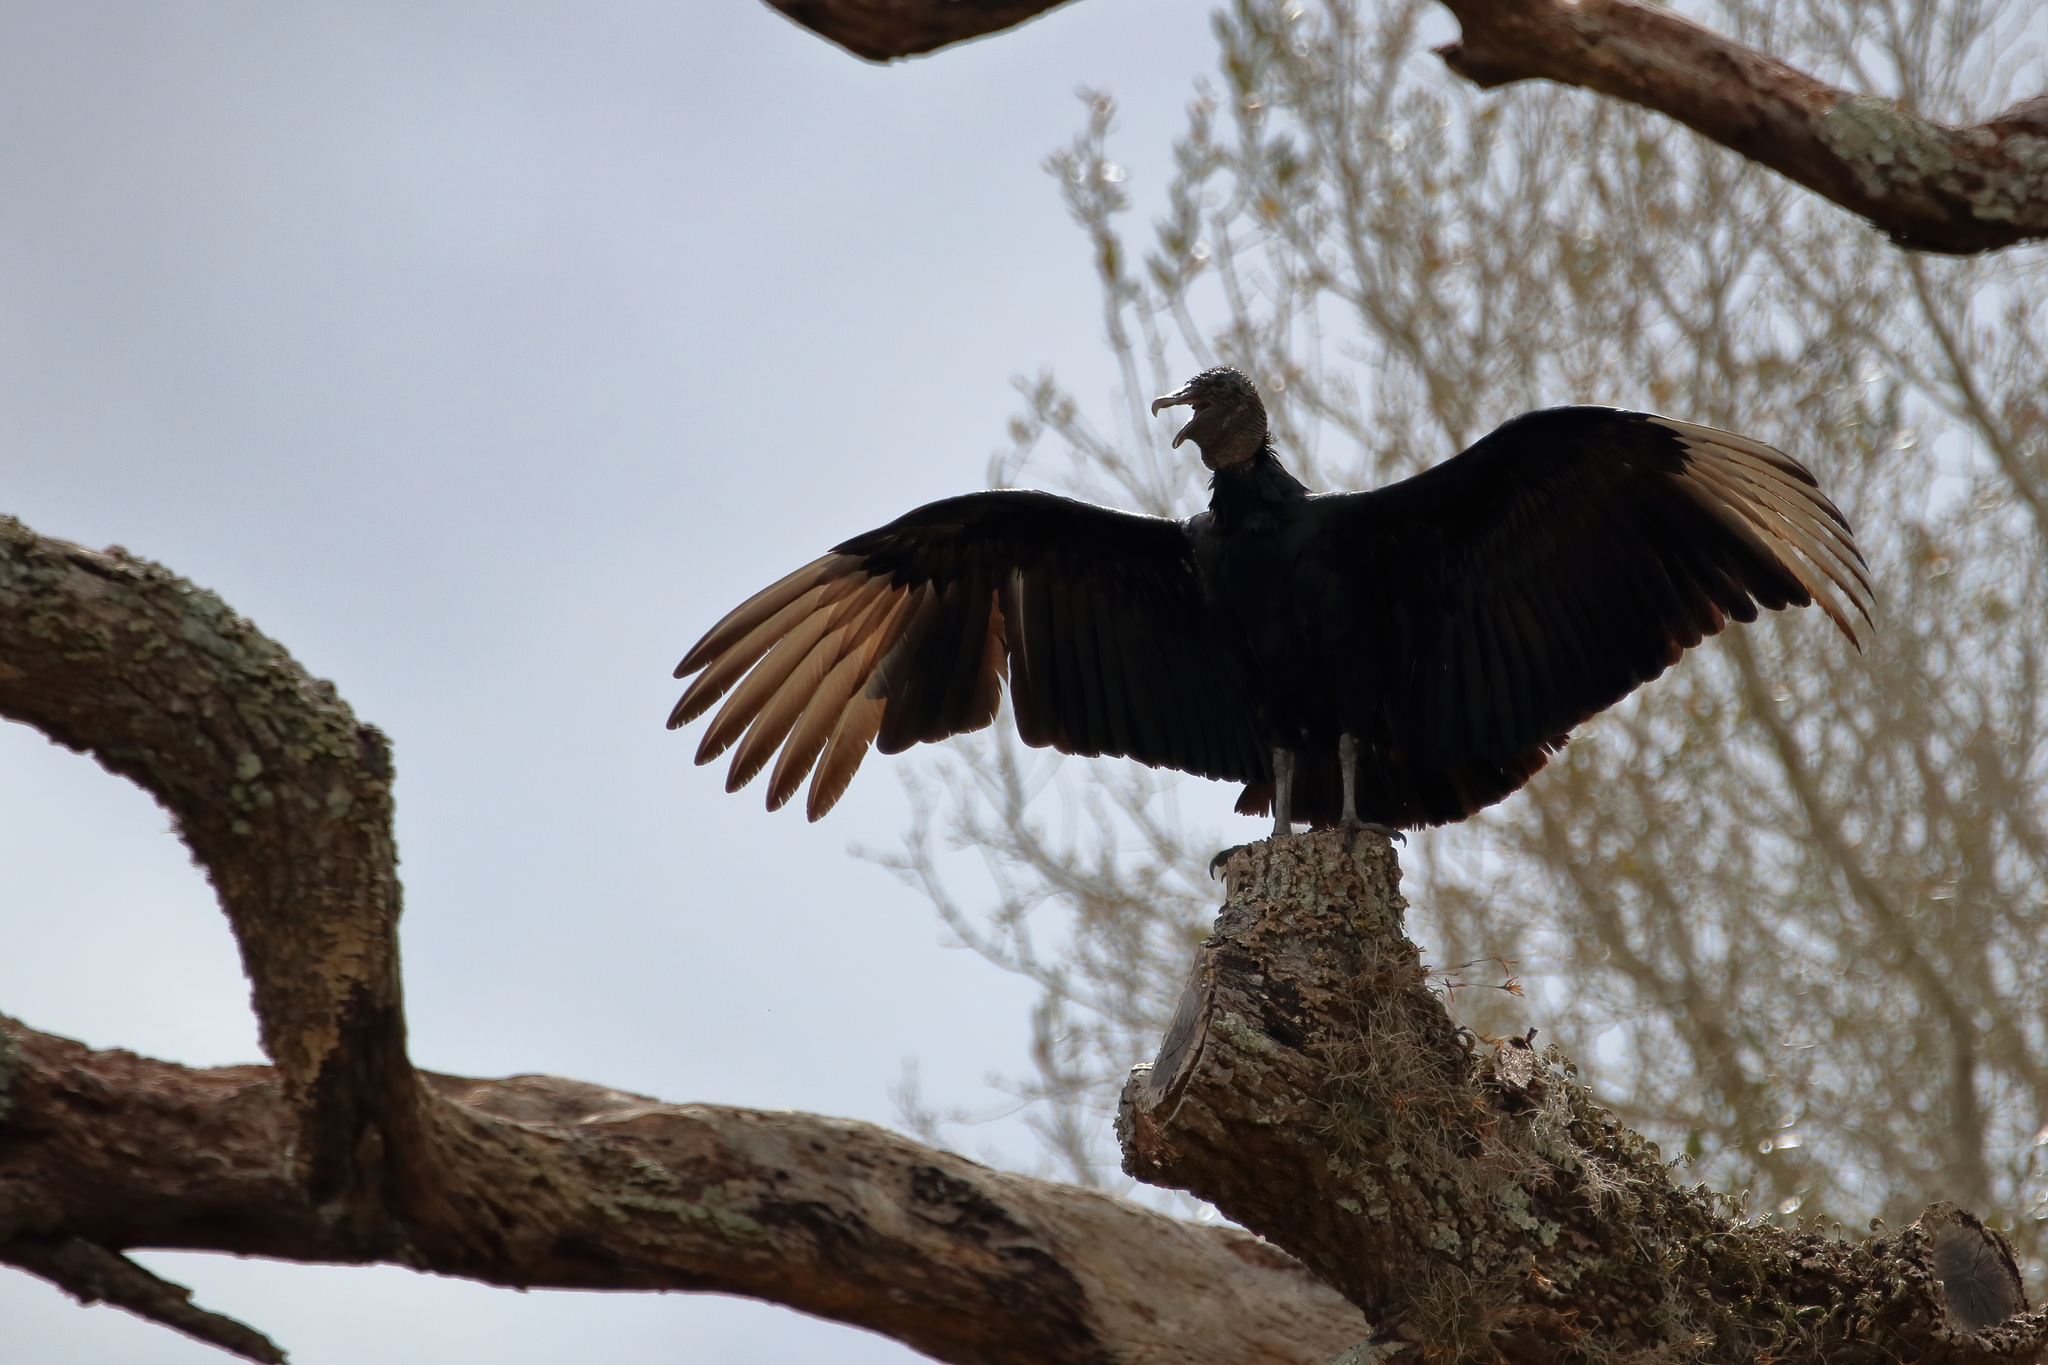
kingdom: Animalia
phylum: Chordata
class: Aves
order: Accipitriformes
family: Cathartidae
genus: Coragyps
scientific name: Coragyps atratus
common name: Black vulture
